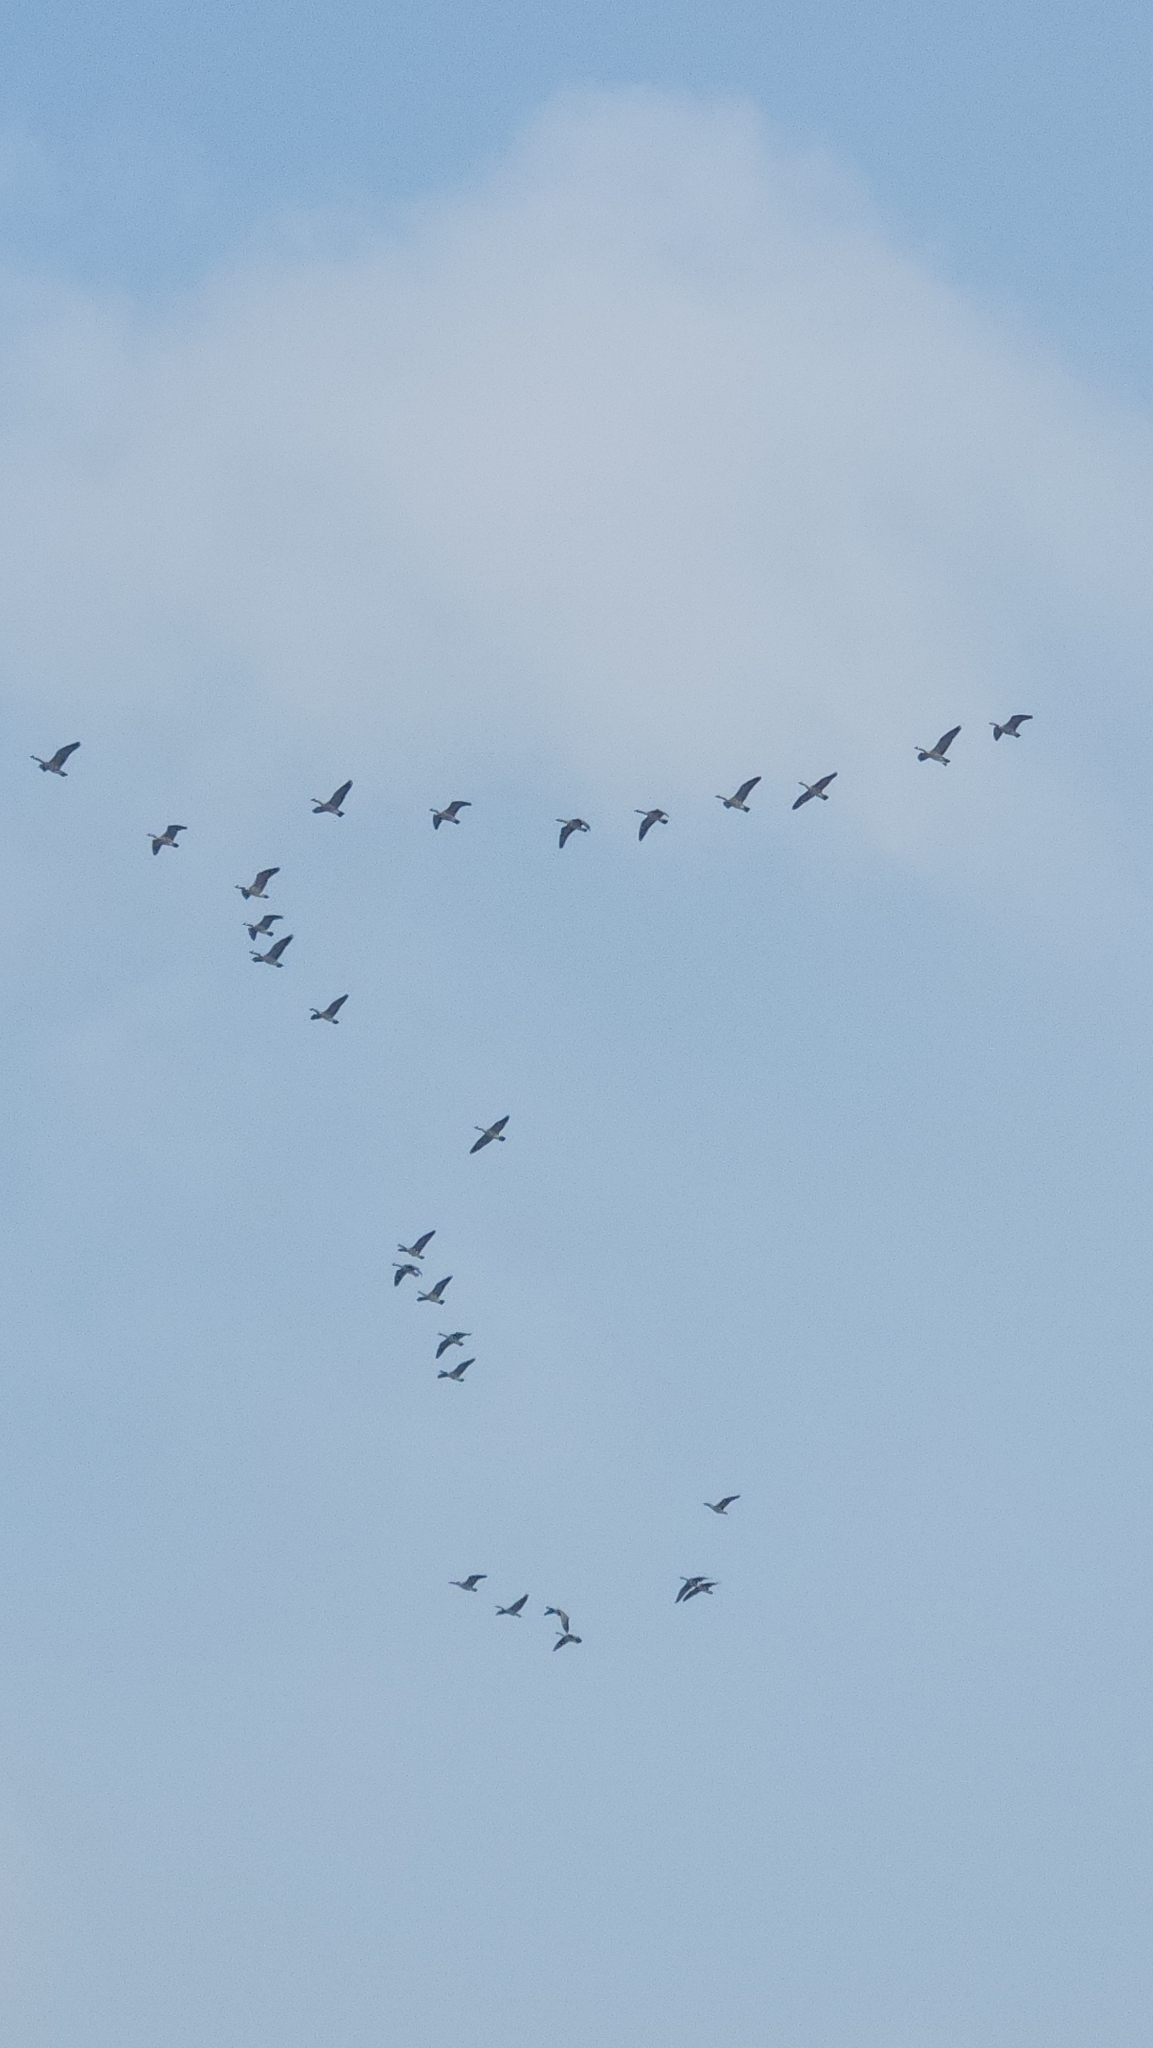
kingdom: Animalia
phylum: Chordata
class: Aves
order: Anseriformes
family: Anatidae
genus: Branta
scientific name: Branta canadensis
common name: Canada goose
